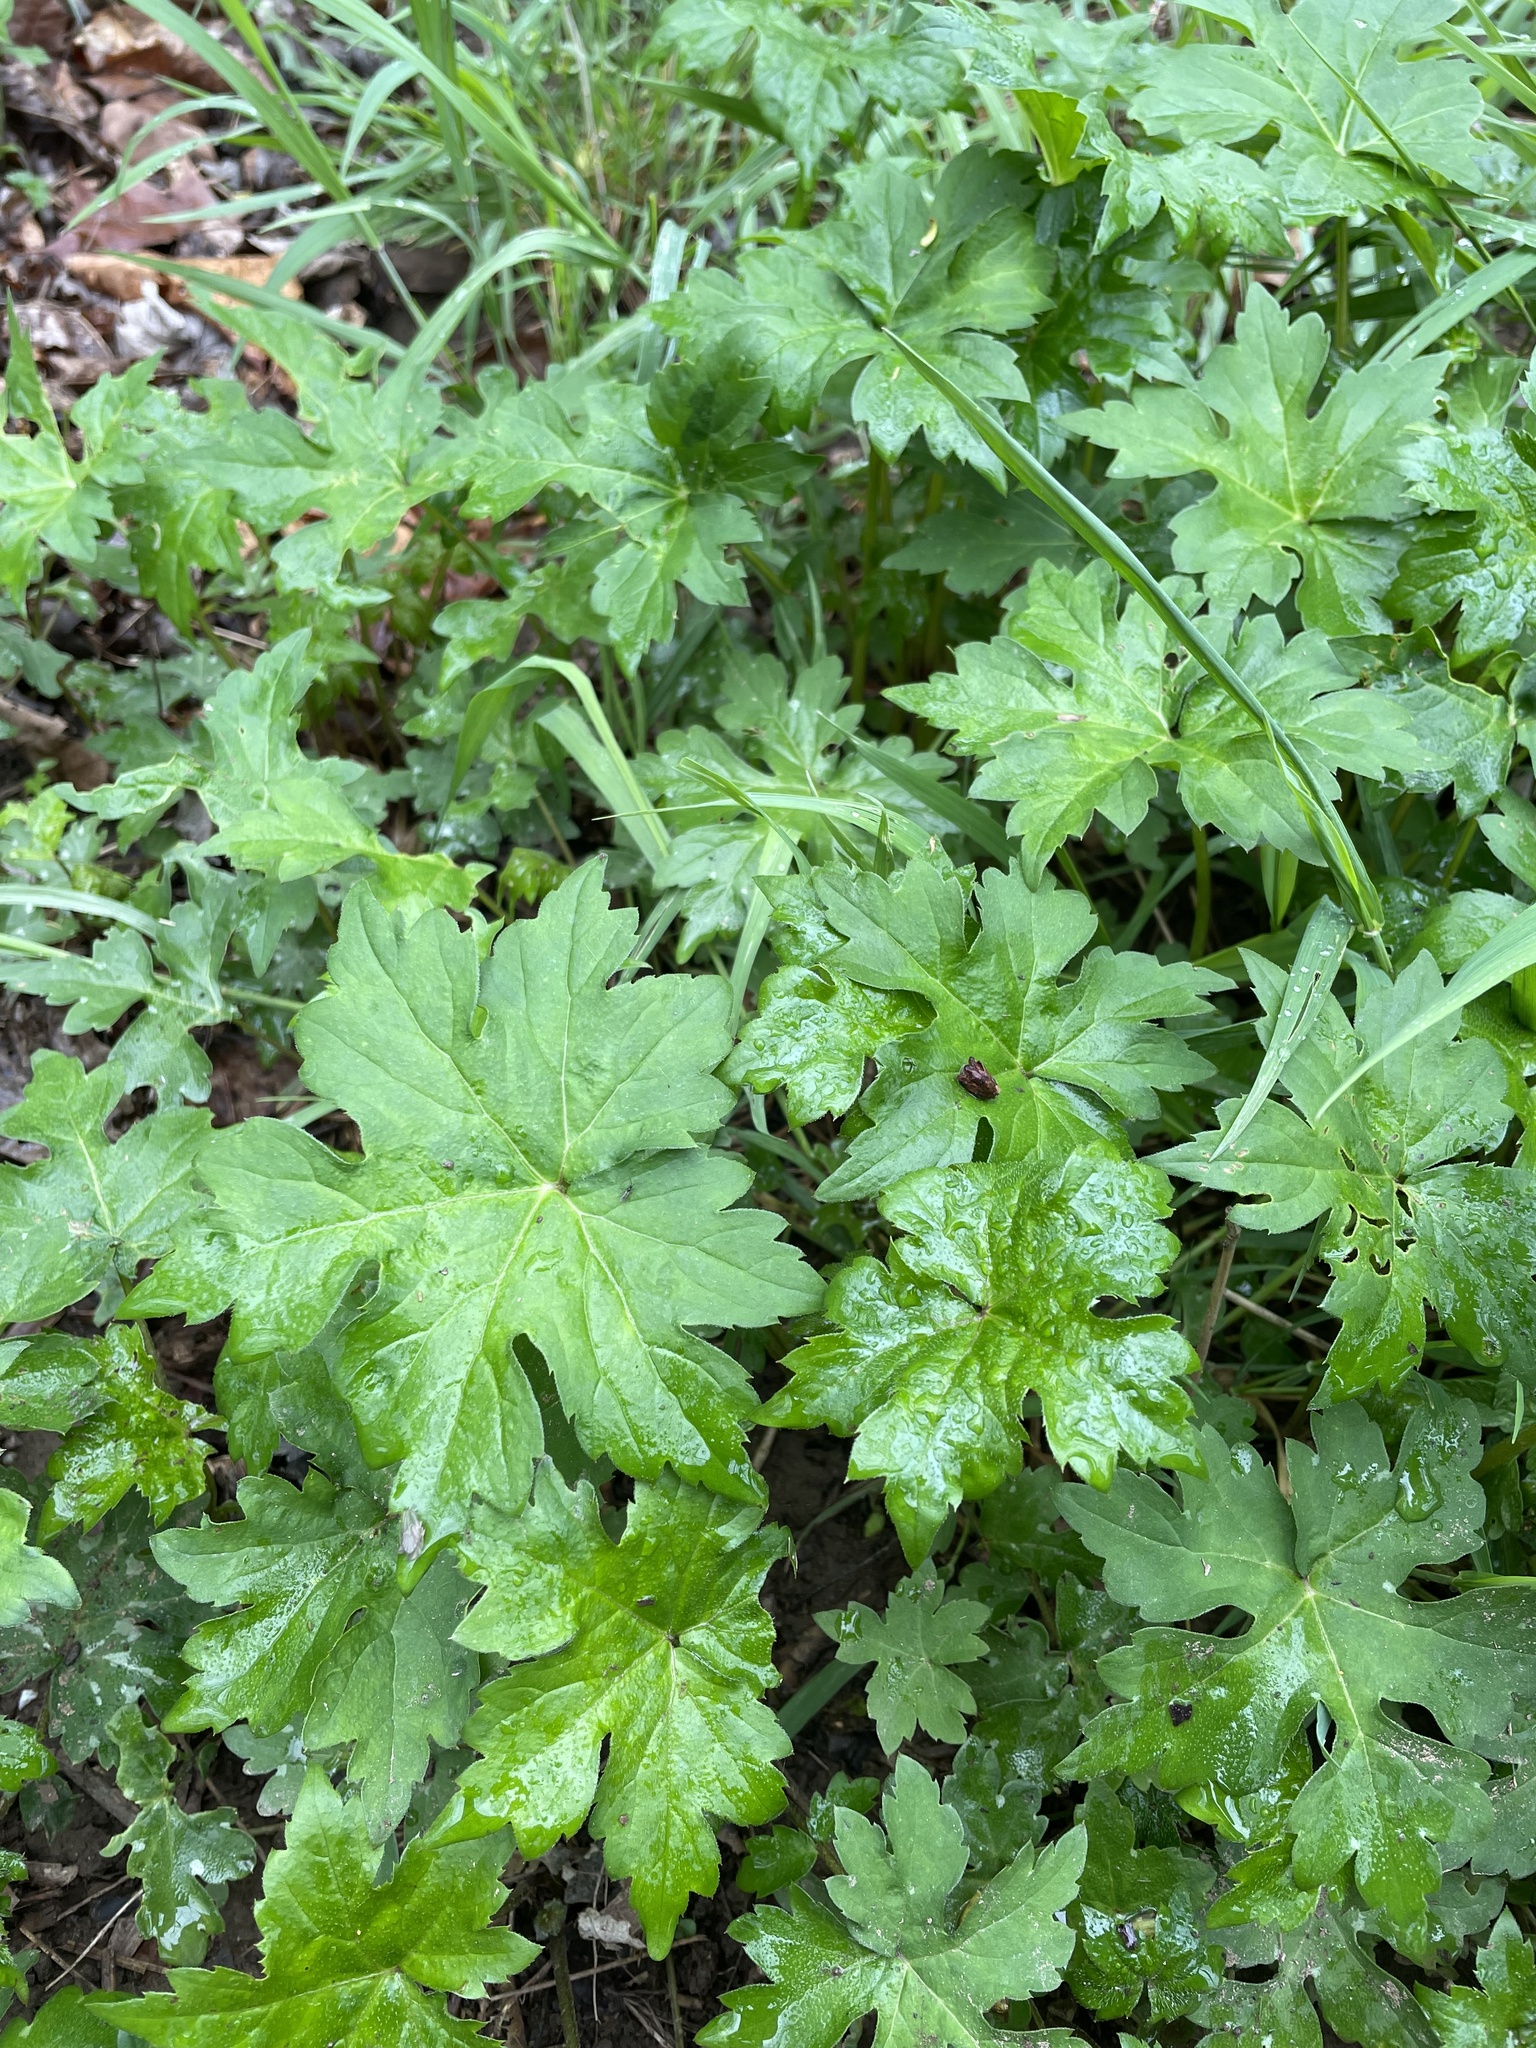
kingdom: Plantae
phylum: Tracheophyta
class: Magnoliopsida
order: Boraginales
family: Hydrophyllaceae
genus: Hydrophyllum
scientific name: Hydrophyllum canadense
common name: Canada waterleaf
